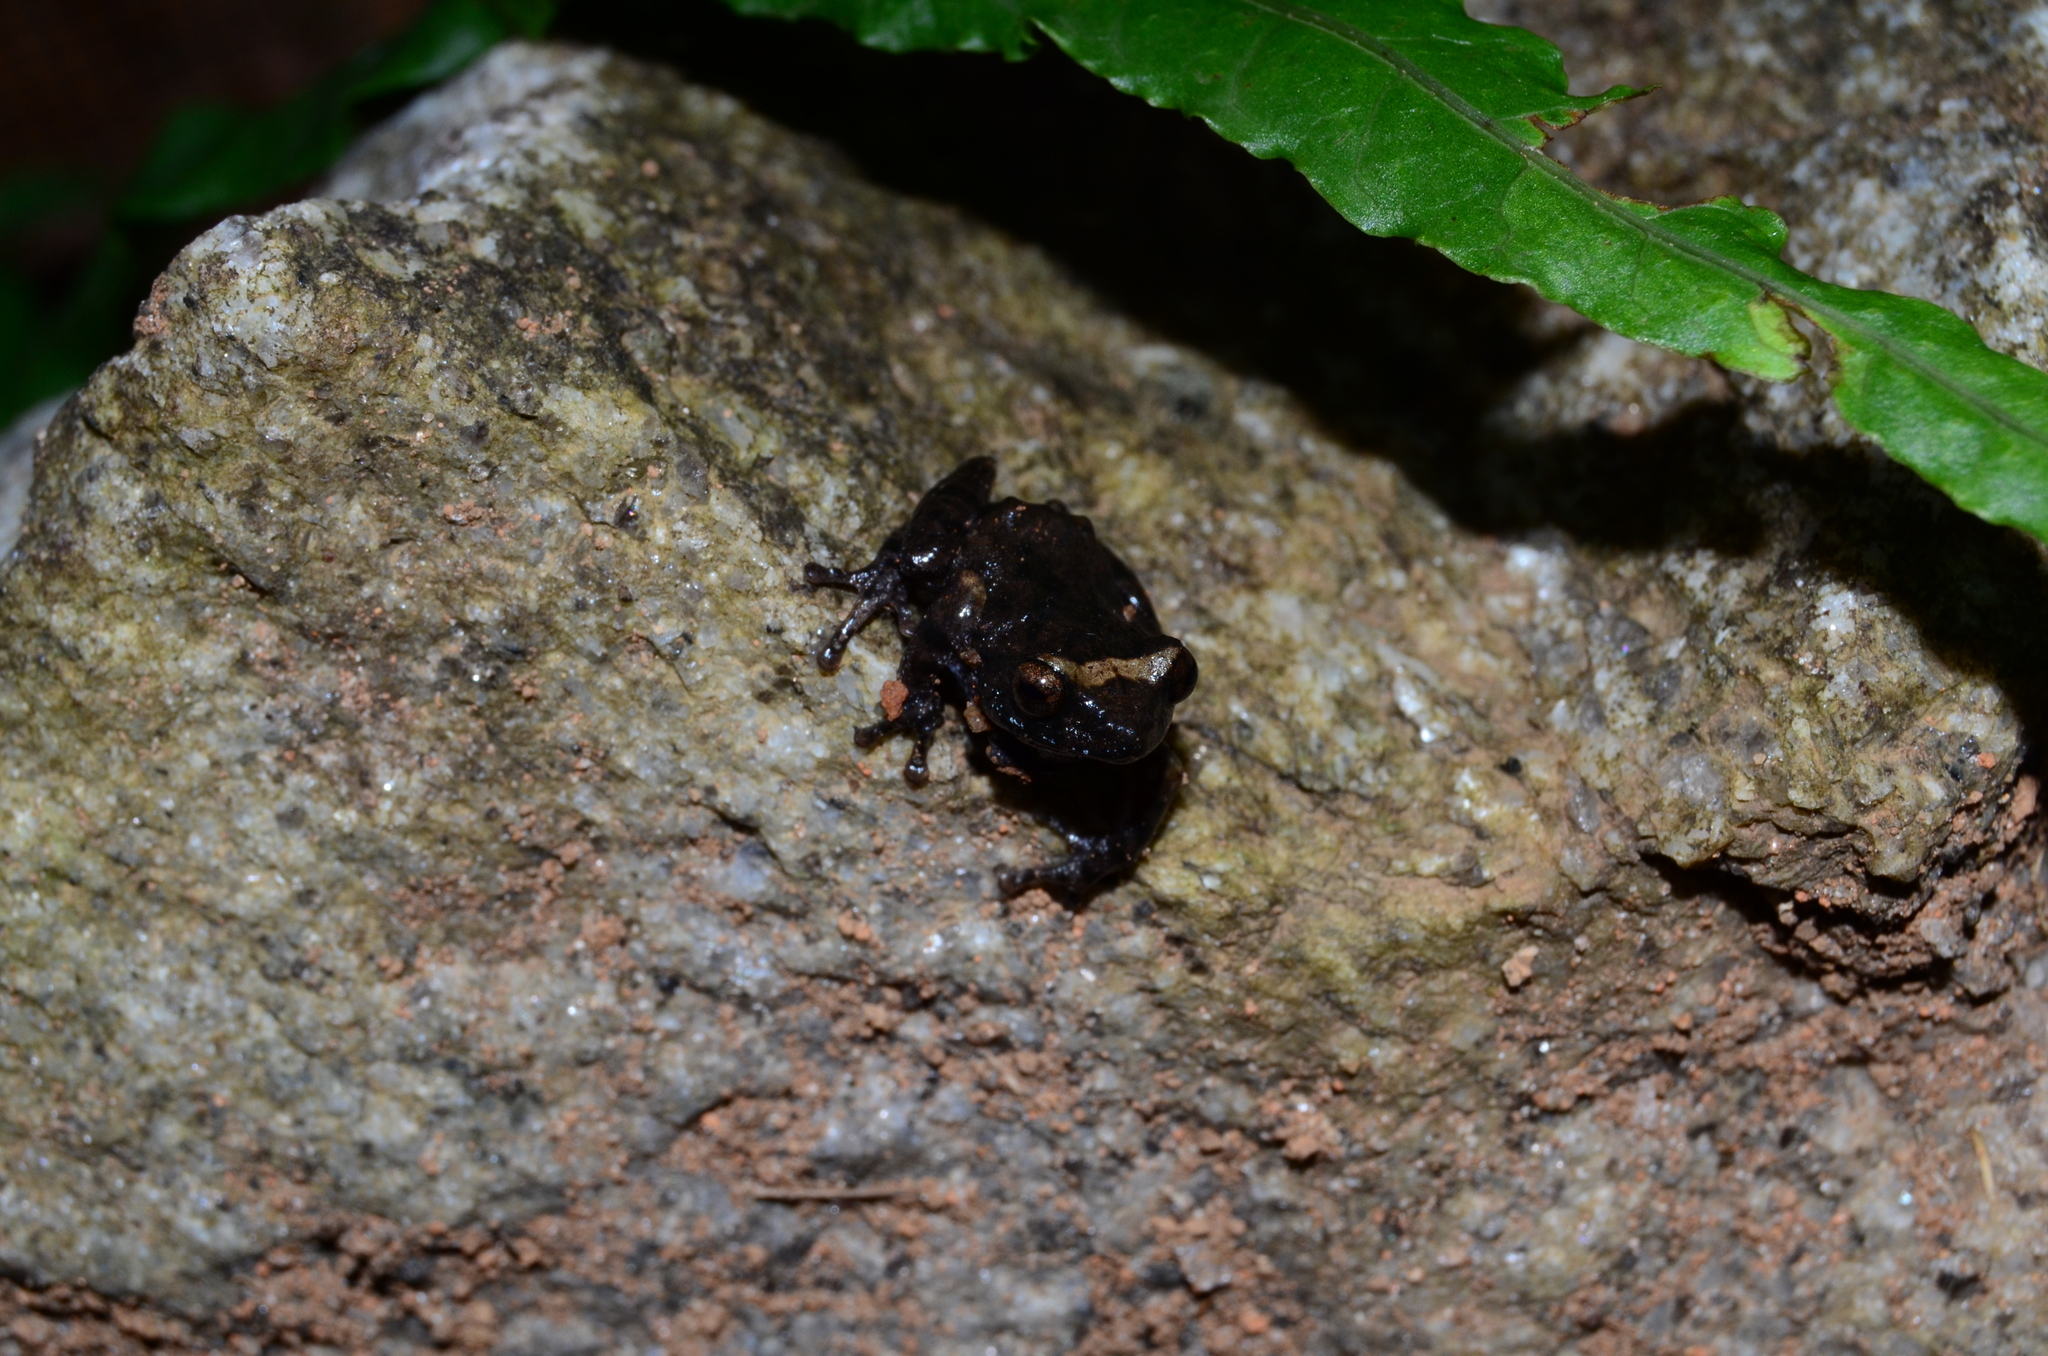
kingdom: Animalia
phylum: Chordata
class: Amphibia
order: Anura
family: Rhacophoridae
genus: Raorchestes
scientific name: Raorchestes tuberohumerus
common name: Kudremukh bush frog
